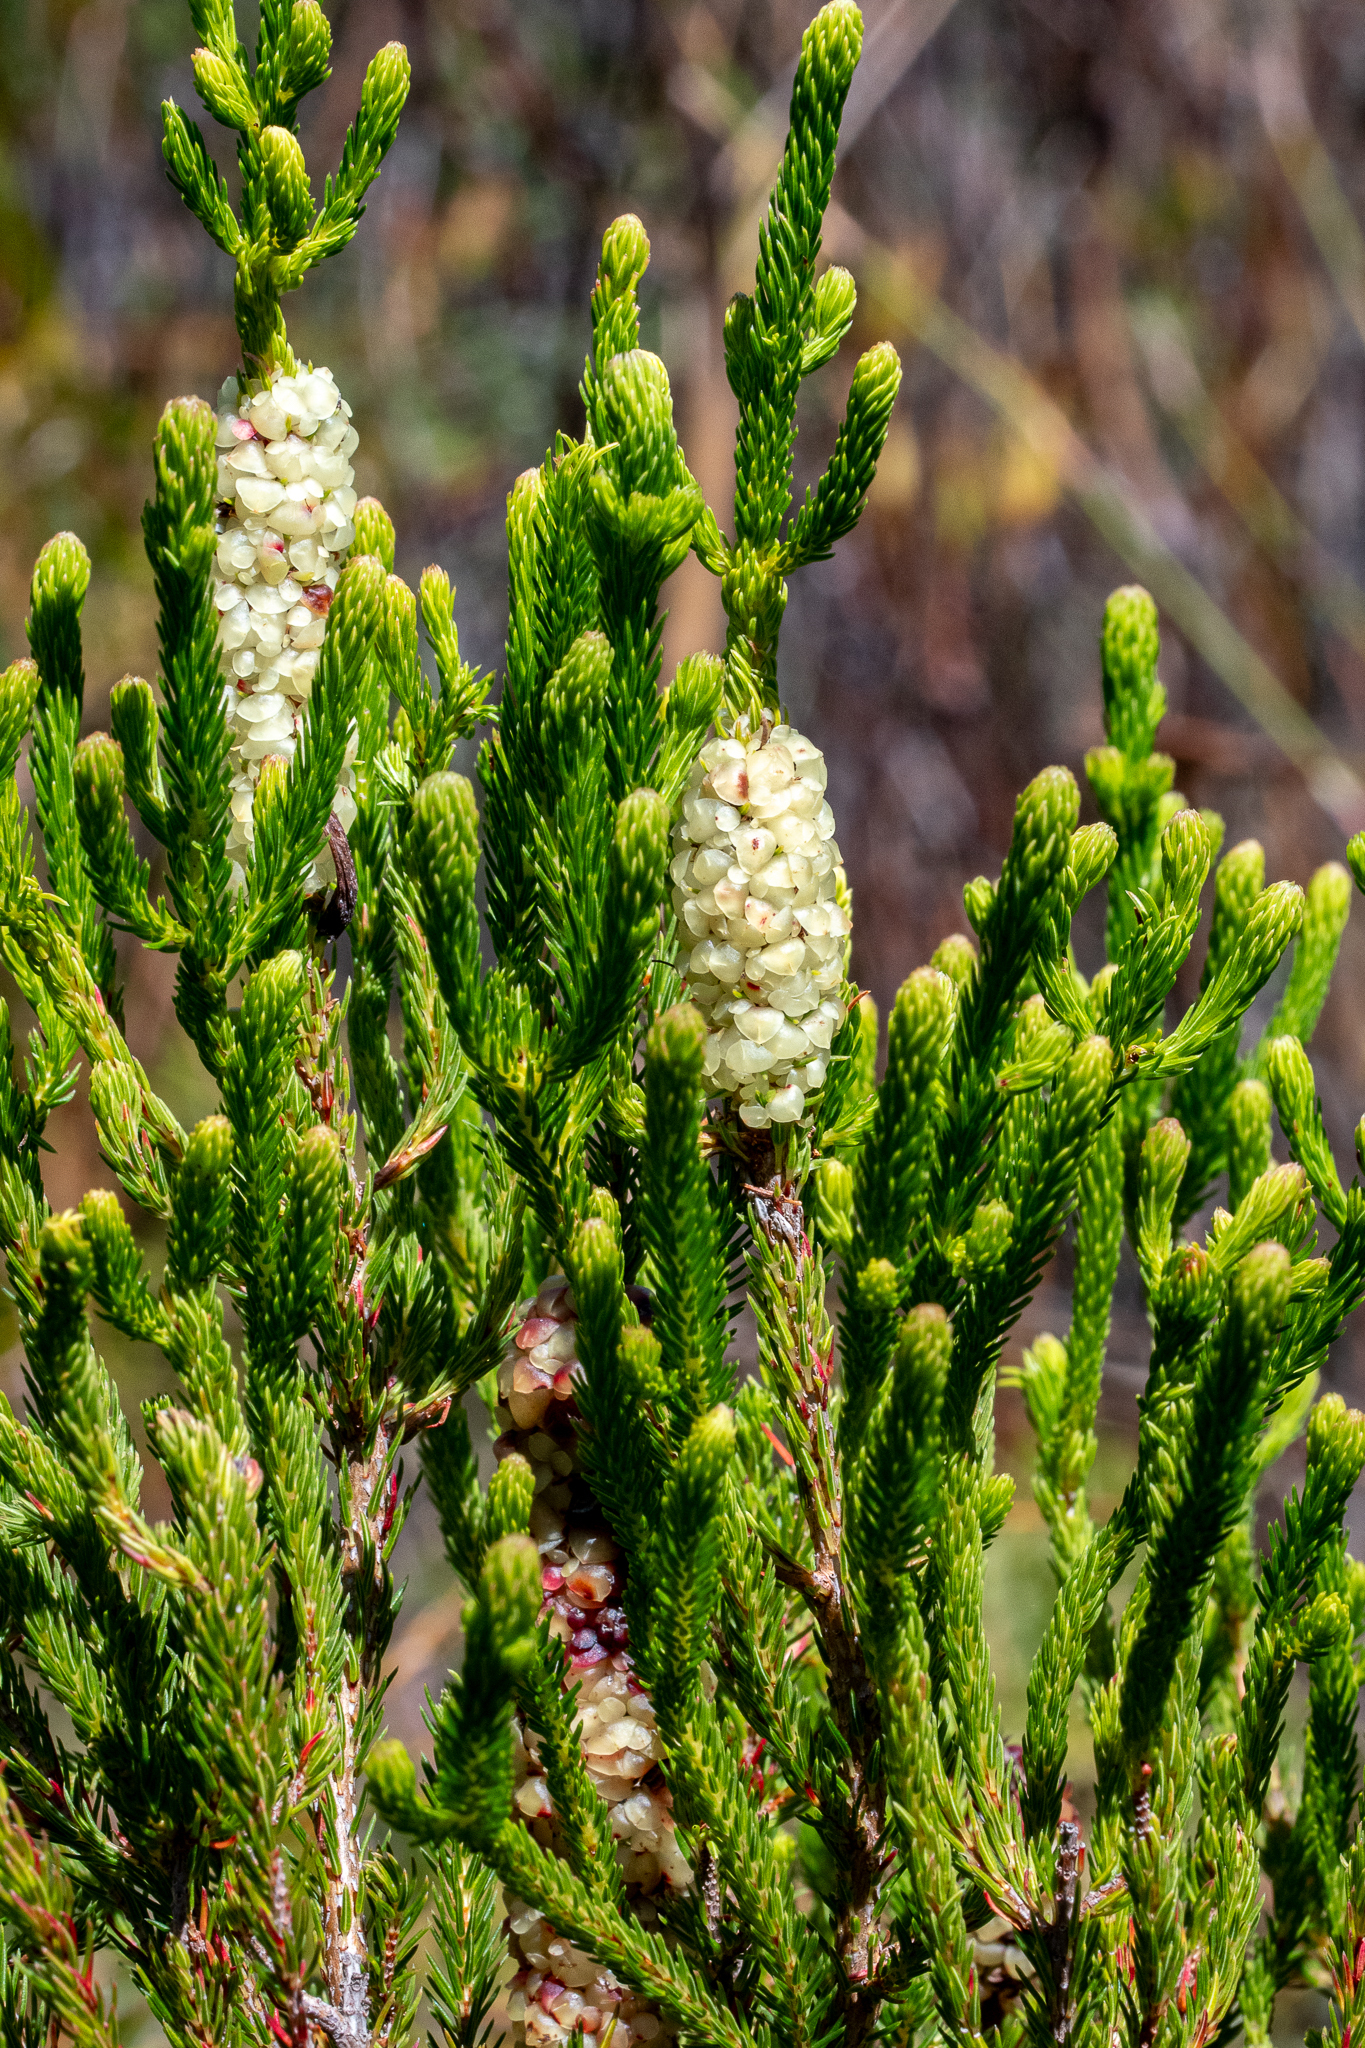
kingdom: Plantae
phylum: Tracheophyta
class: Magnoliopsida
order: Ericales
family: Ericaceae
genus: Erica
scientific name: Erica sessiliflora
